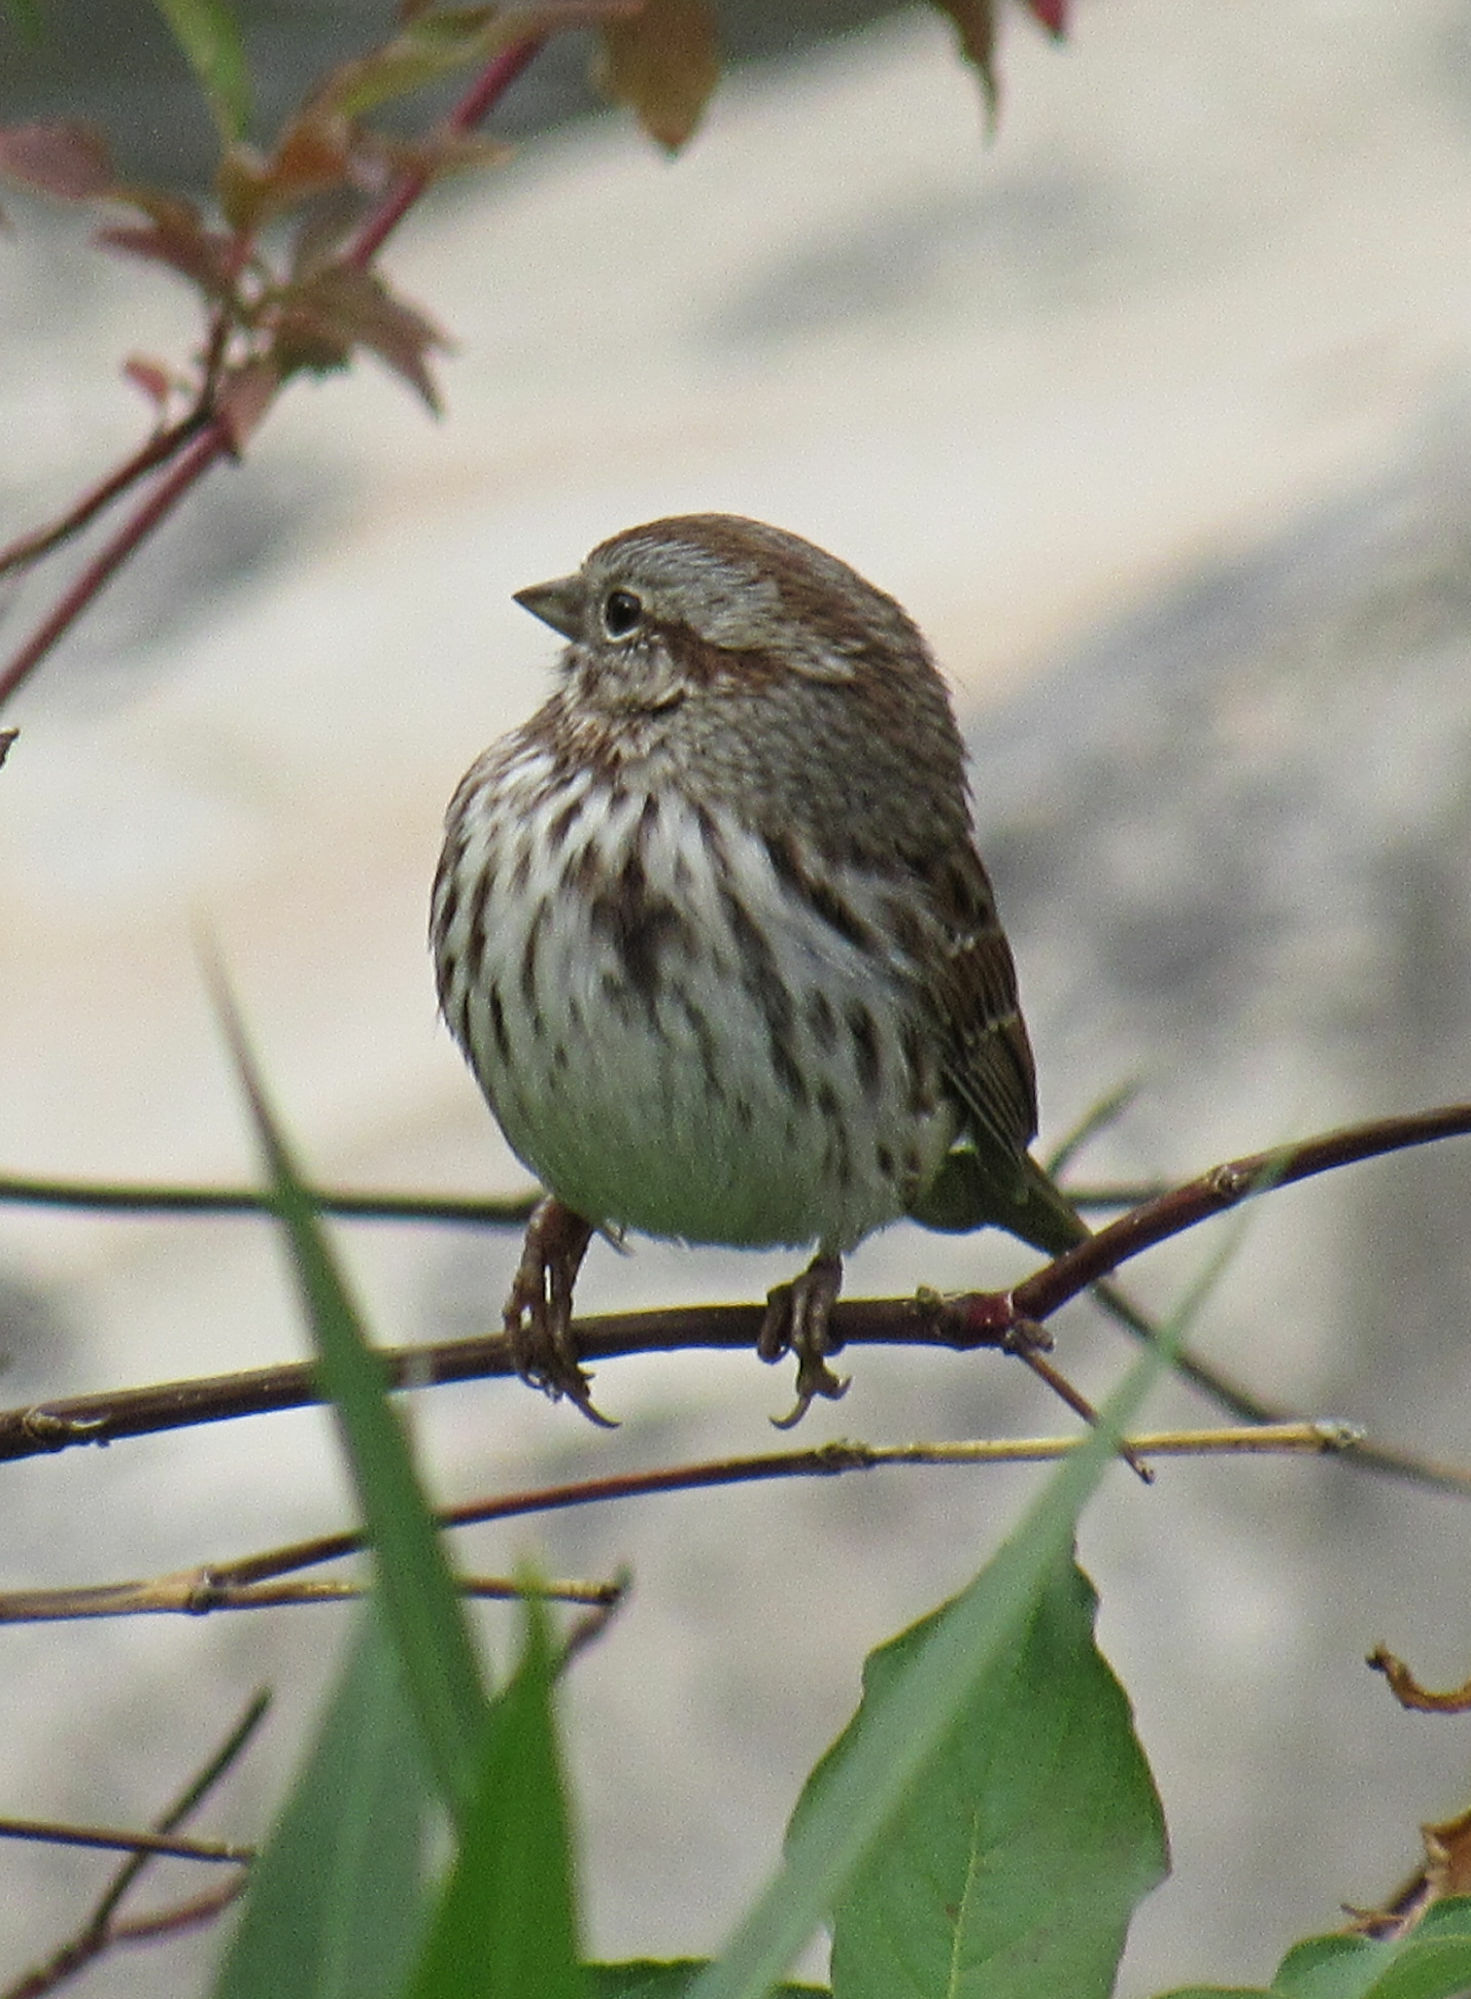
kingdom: Animalia
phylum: Chordata
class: Aves
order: Passeriformes
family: Passerellidae
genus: Melospiza
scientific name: Melospiza melodia
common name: Song sparrow
